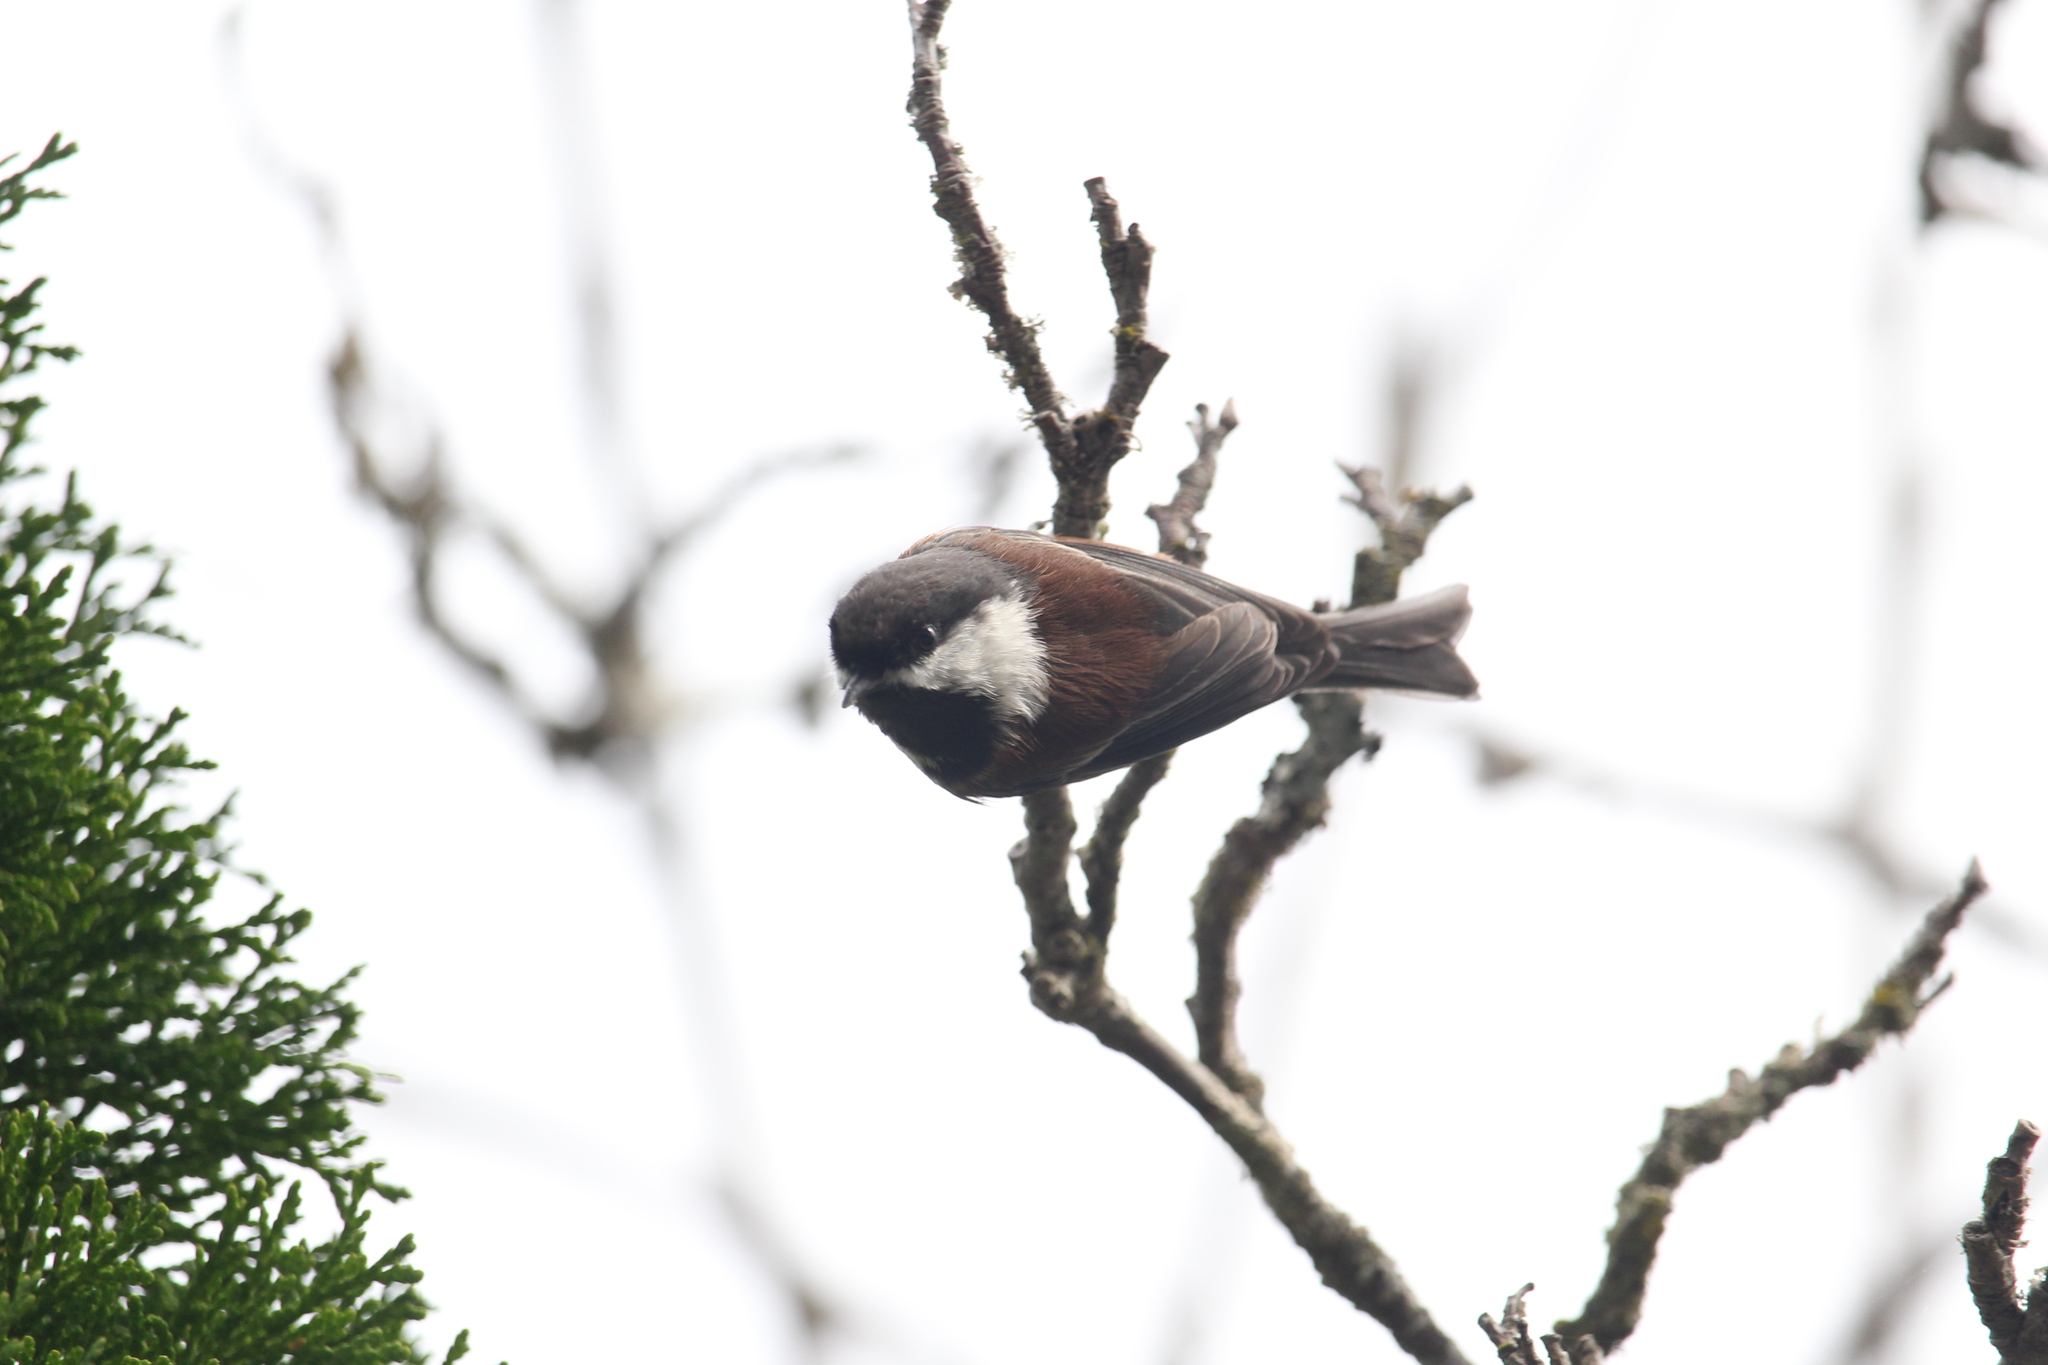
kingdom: Animalia
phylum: Chordata
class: Aves
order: Passeriformes
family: Paridae
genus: Poecile
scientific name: Poecile rufescens
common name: Chestnut-backed chickadee
